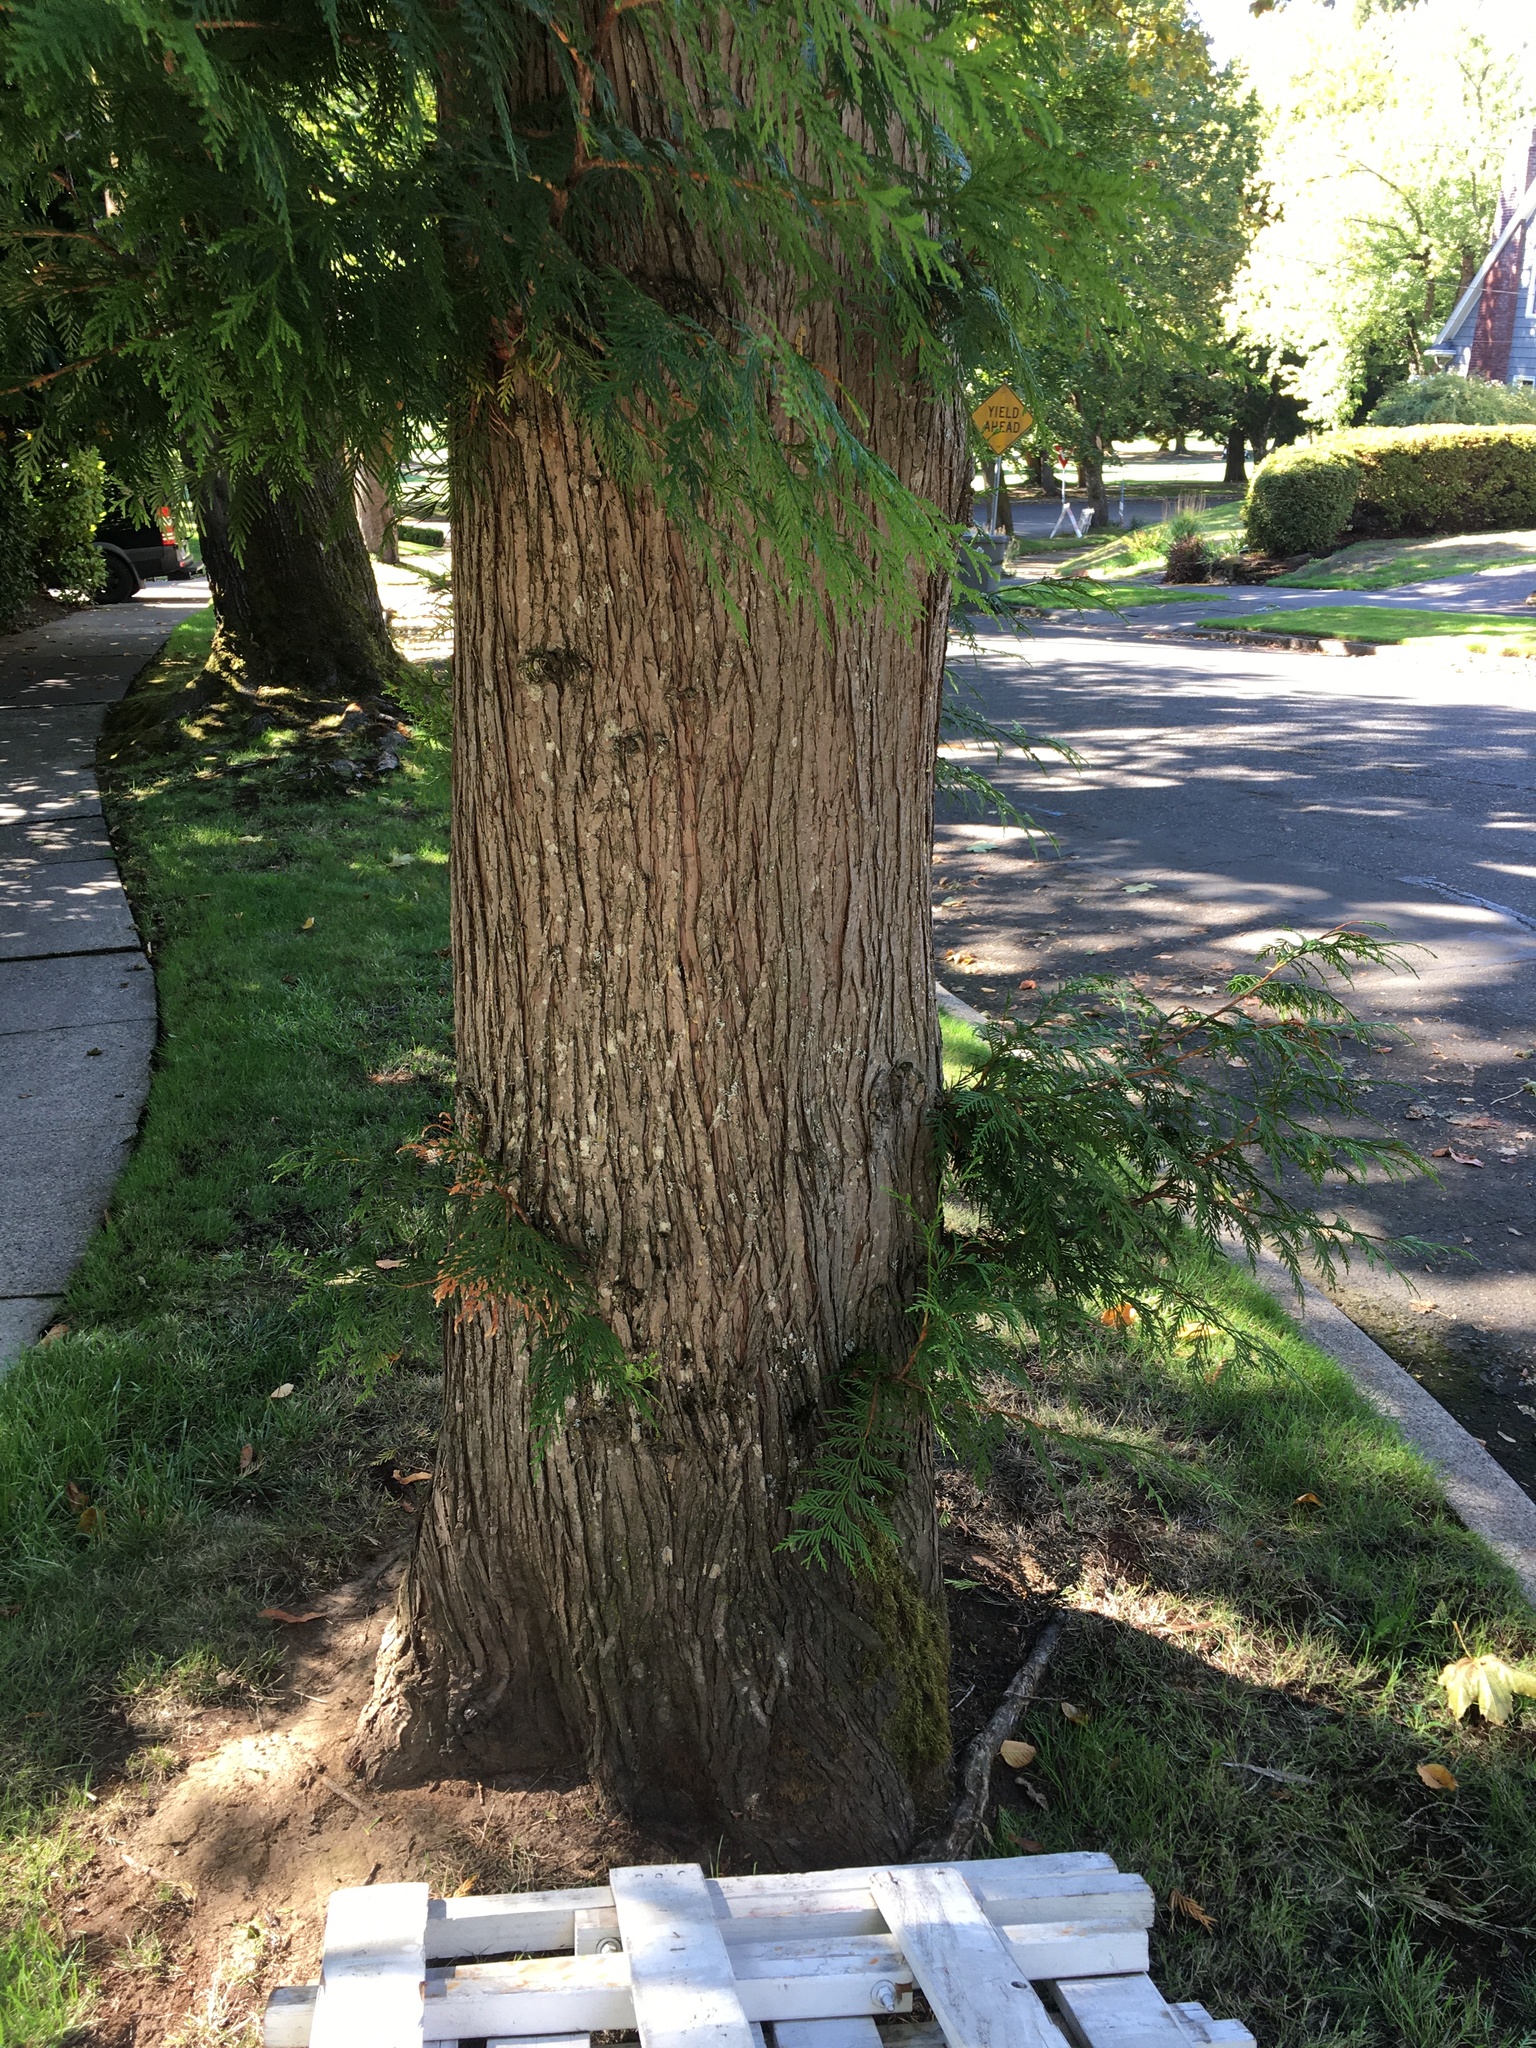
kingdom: Plantae
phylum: Tracheophyta
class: Pinopsida
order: Pinales
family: Cupressaceae
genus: Thuja
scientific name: Thuja plicata
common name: Western red-cedar
